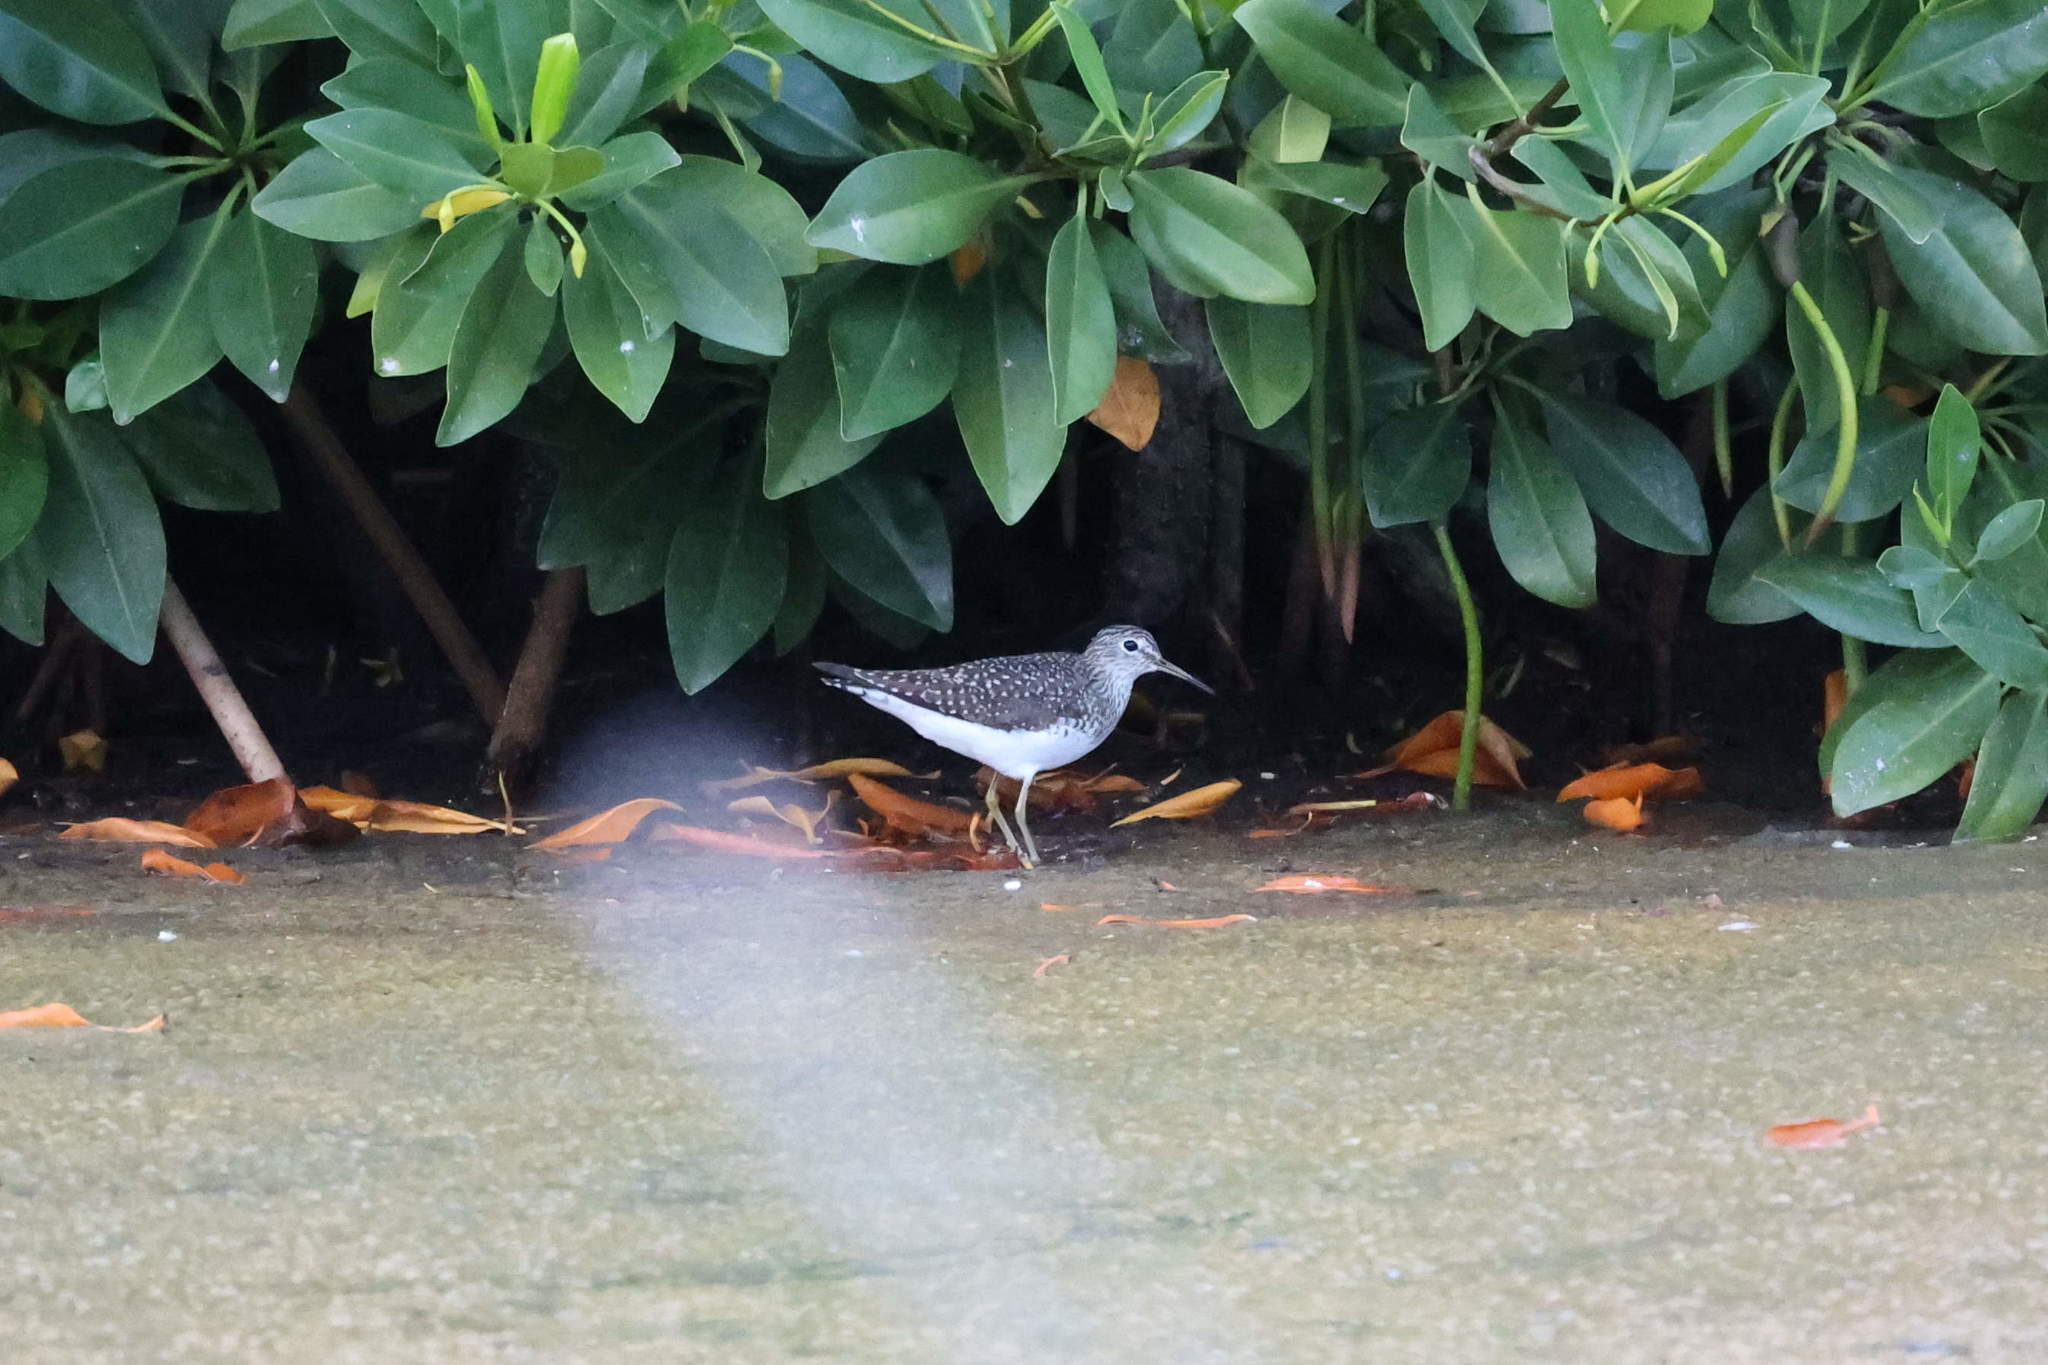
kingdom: Animalia
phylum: Chordata
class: Aves
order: Charadriiformes
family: Scolopacidae
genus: Tringa
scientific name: Tringa solitaria
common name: Solitary sandpiper
